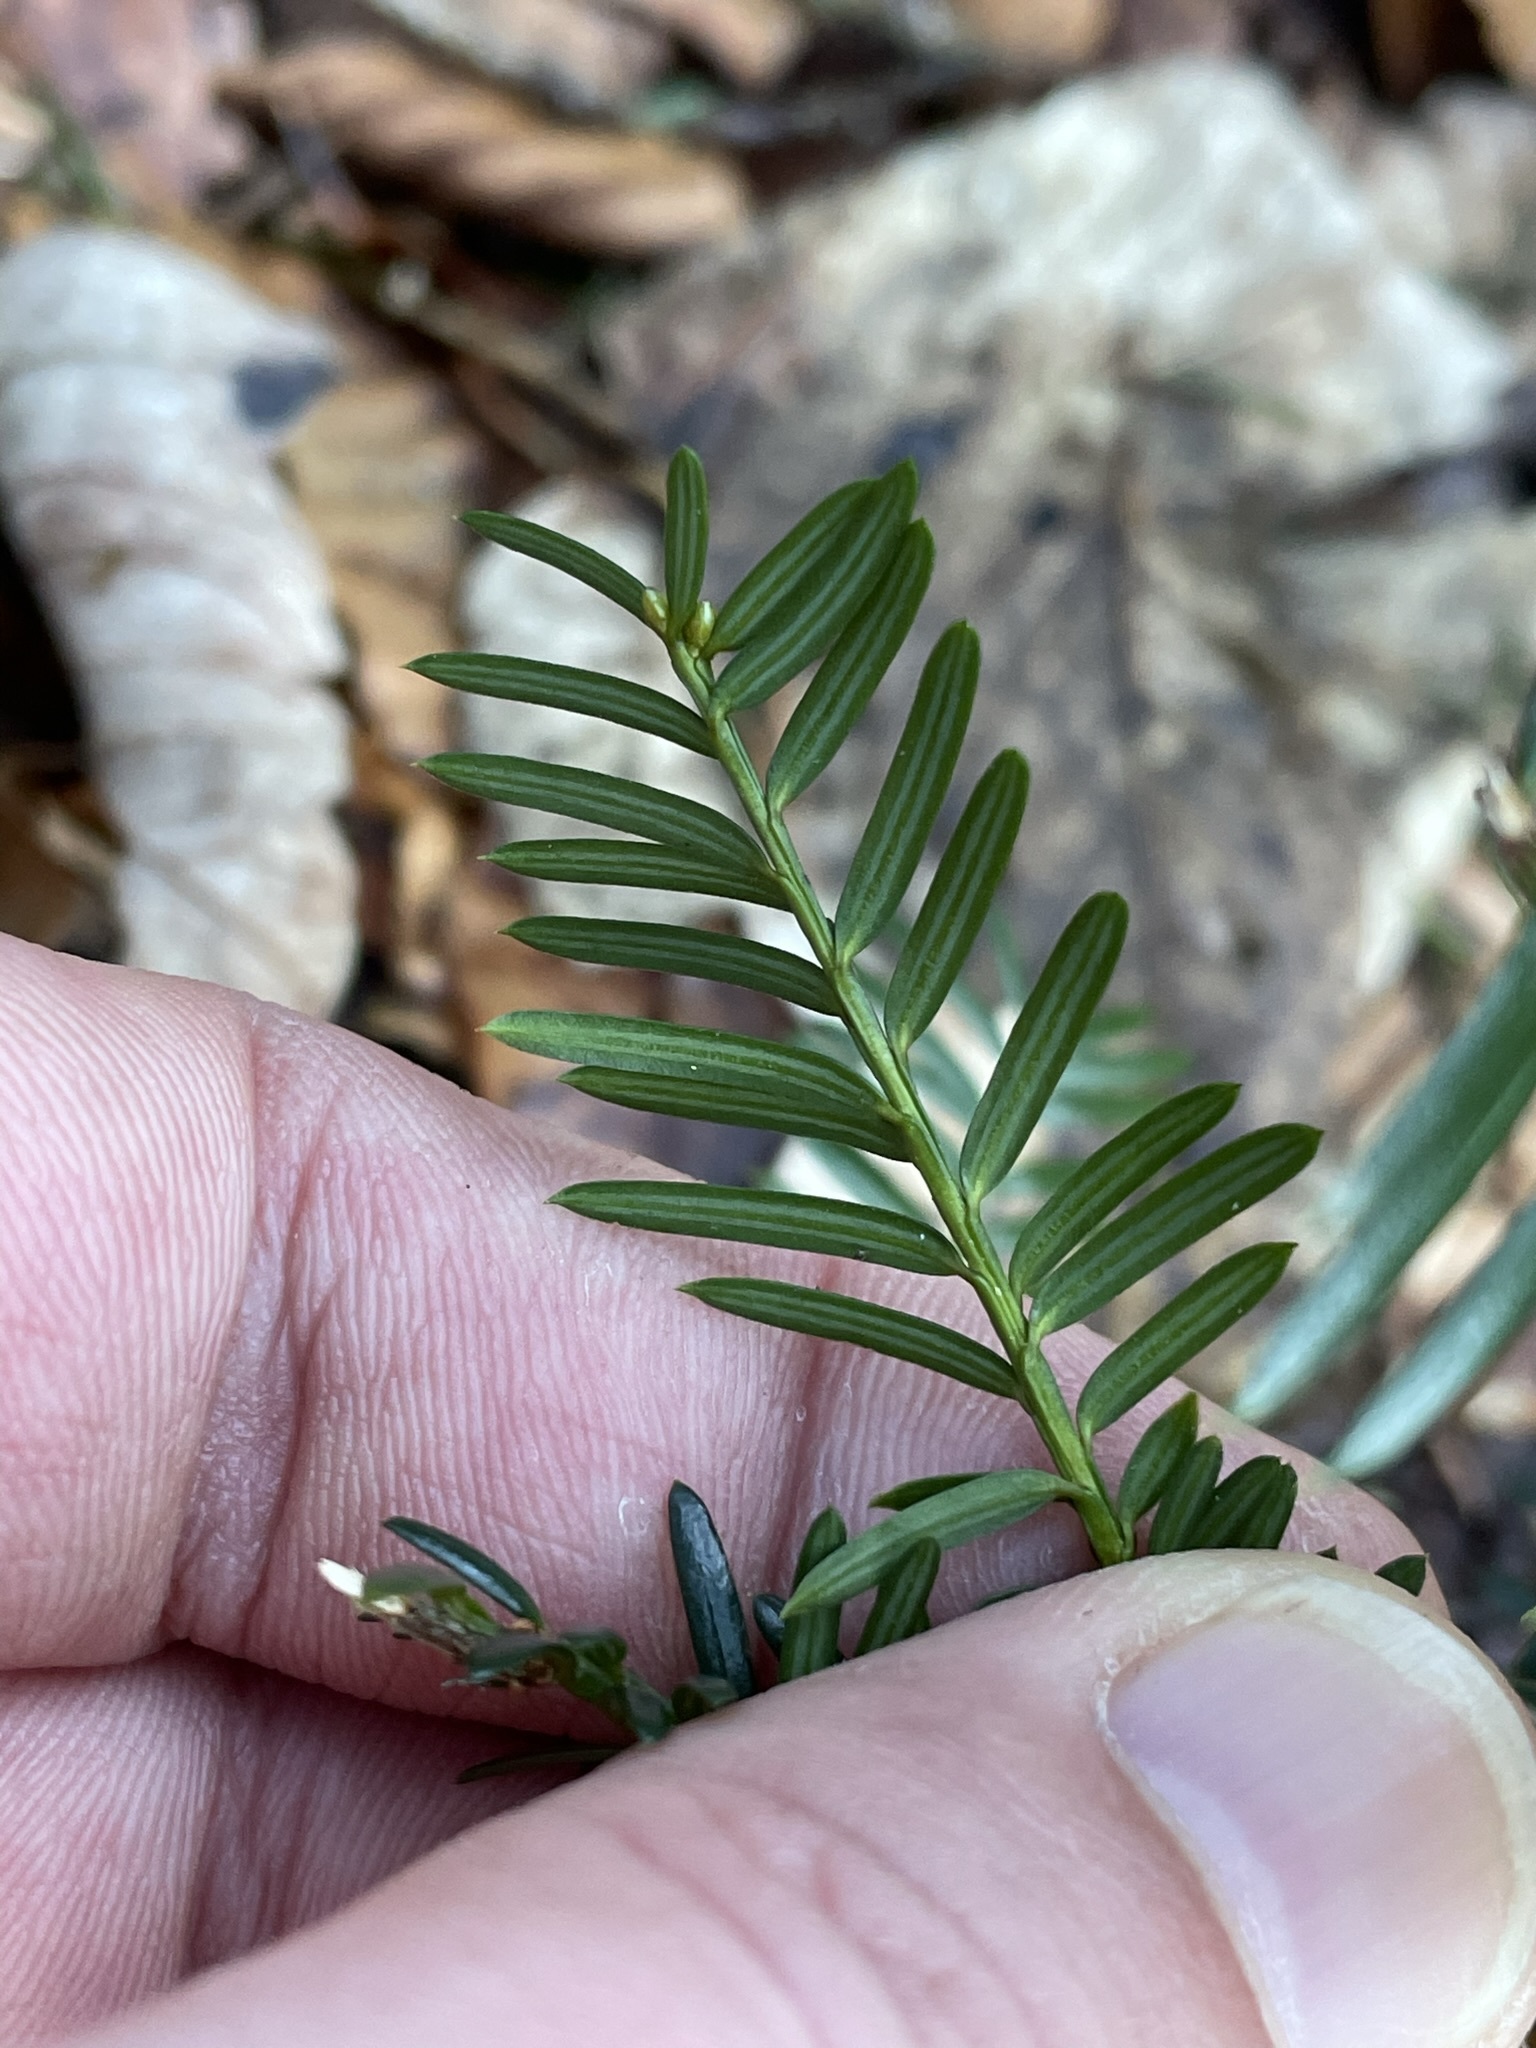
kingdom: Plantae
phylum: Tracheophyta
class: Pinopsida
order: Pinales
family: Taxaceae
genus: Taxus
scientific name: Taxus baccata
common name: Yew
